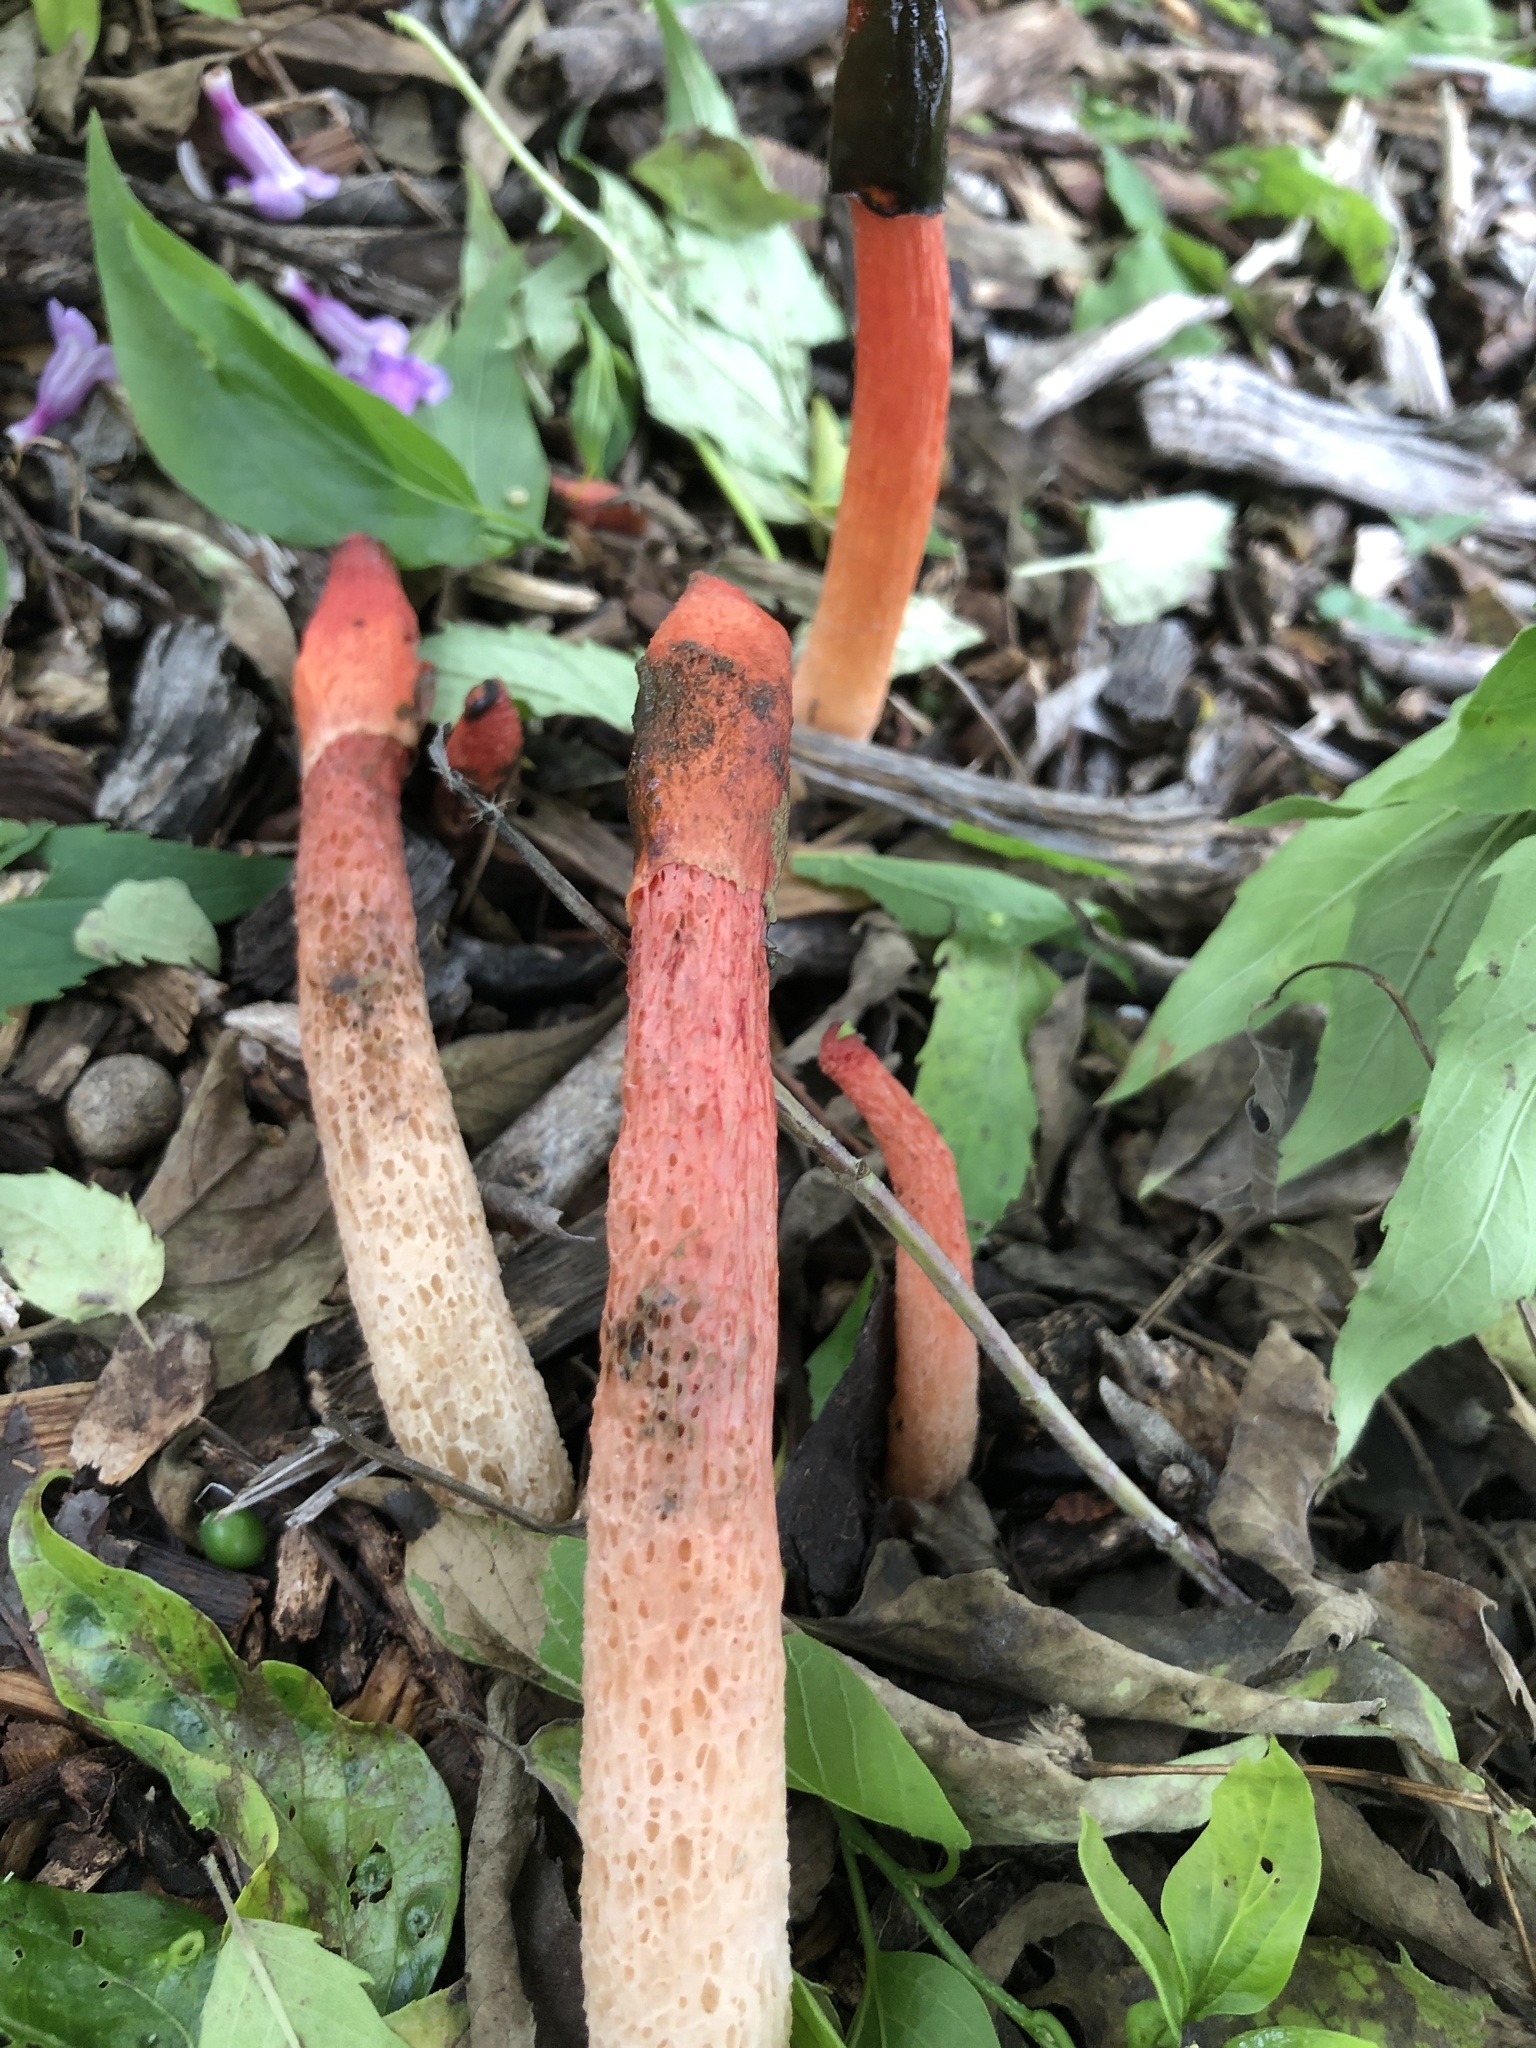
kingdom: Fungi
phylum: Basidiomycota
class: Agaricomycetes
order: Phallales
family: Phallaceae
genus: Phallus
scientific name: Phallus rugulosus
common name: Wrinkly stinkhorn
